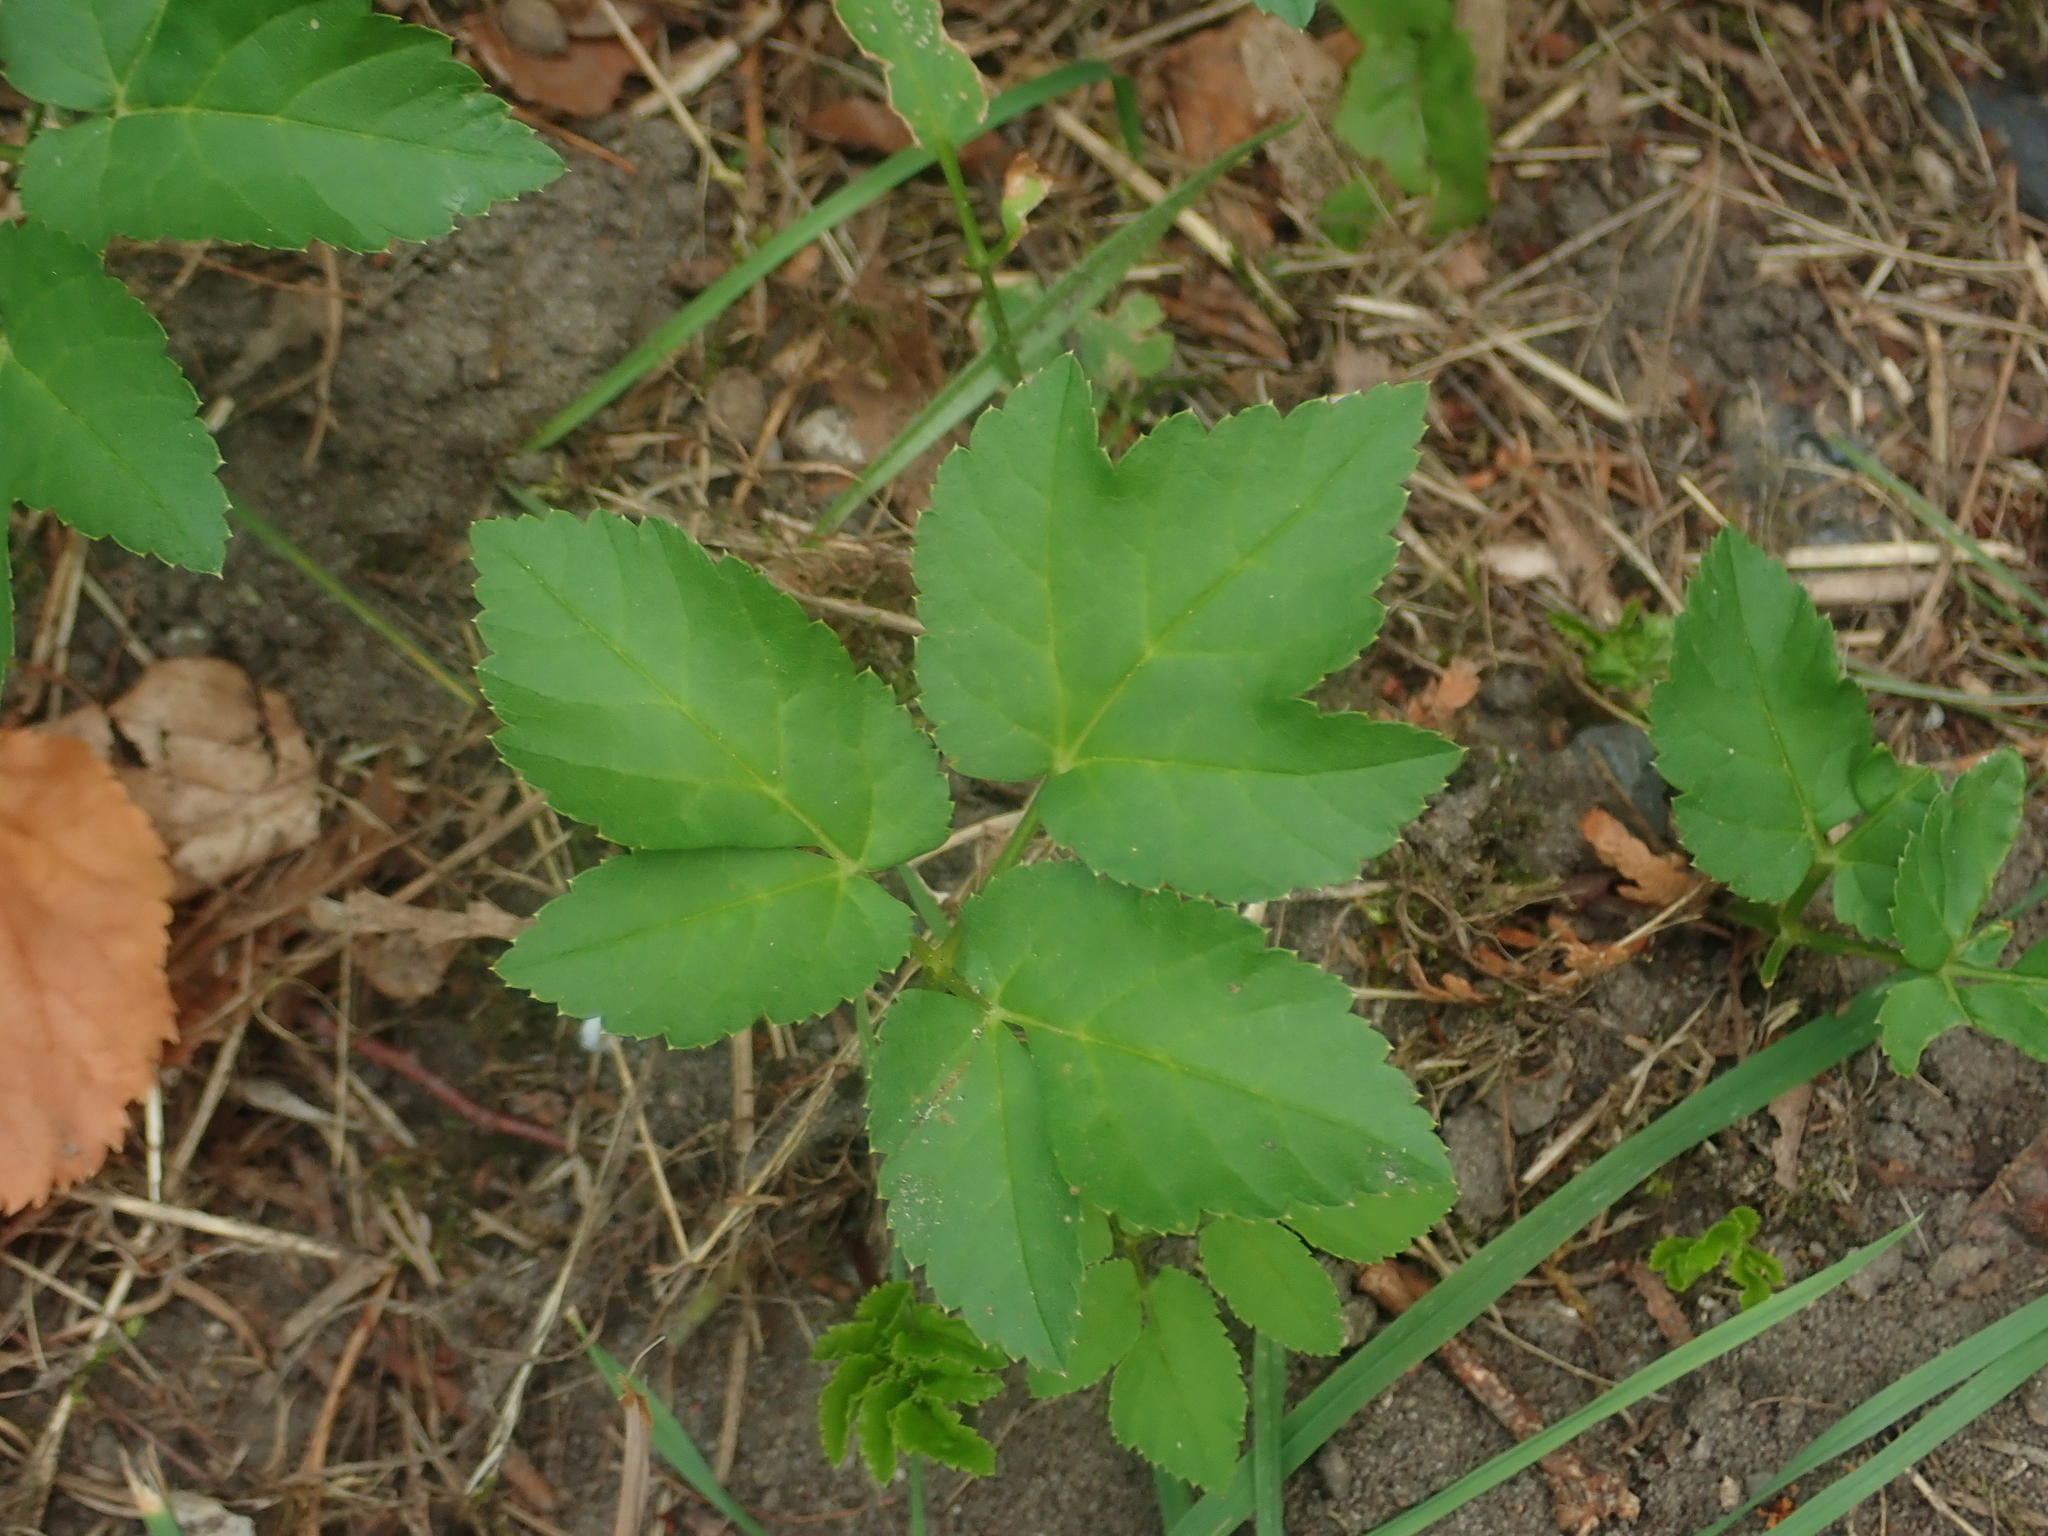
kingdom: Plantae
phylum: Tracheophyta
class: Magnoliopsida
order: Apiales
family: Apiaceae
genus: Aegopodium
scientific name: Aegopodium podagraria
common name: Ground-elder
